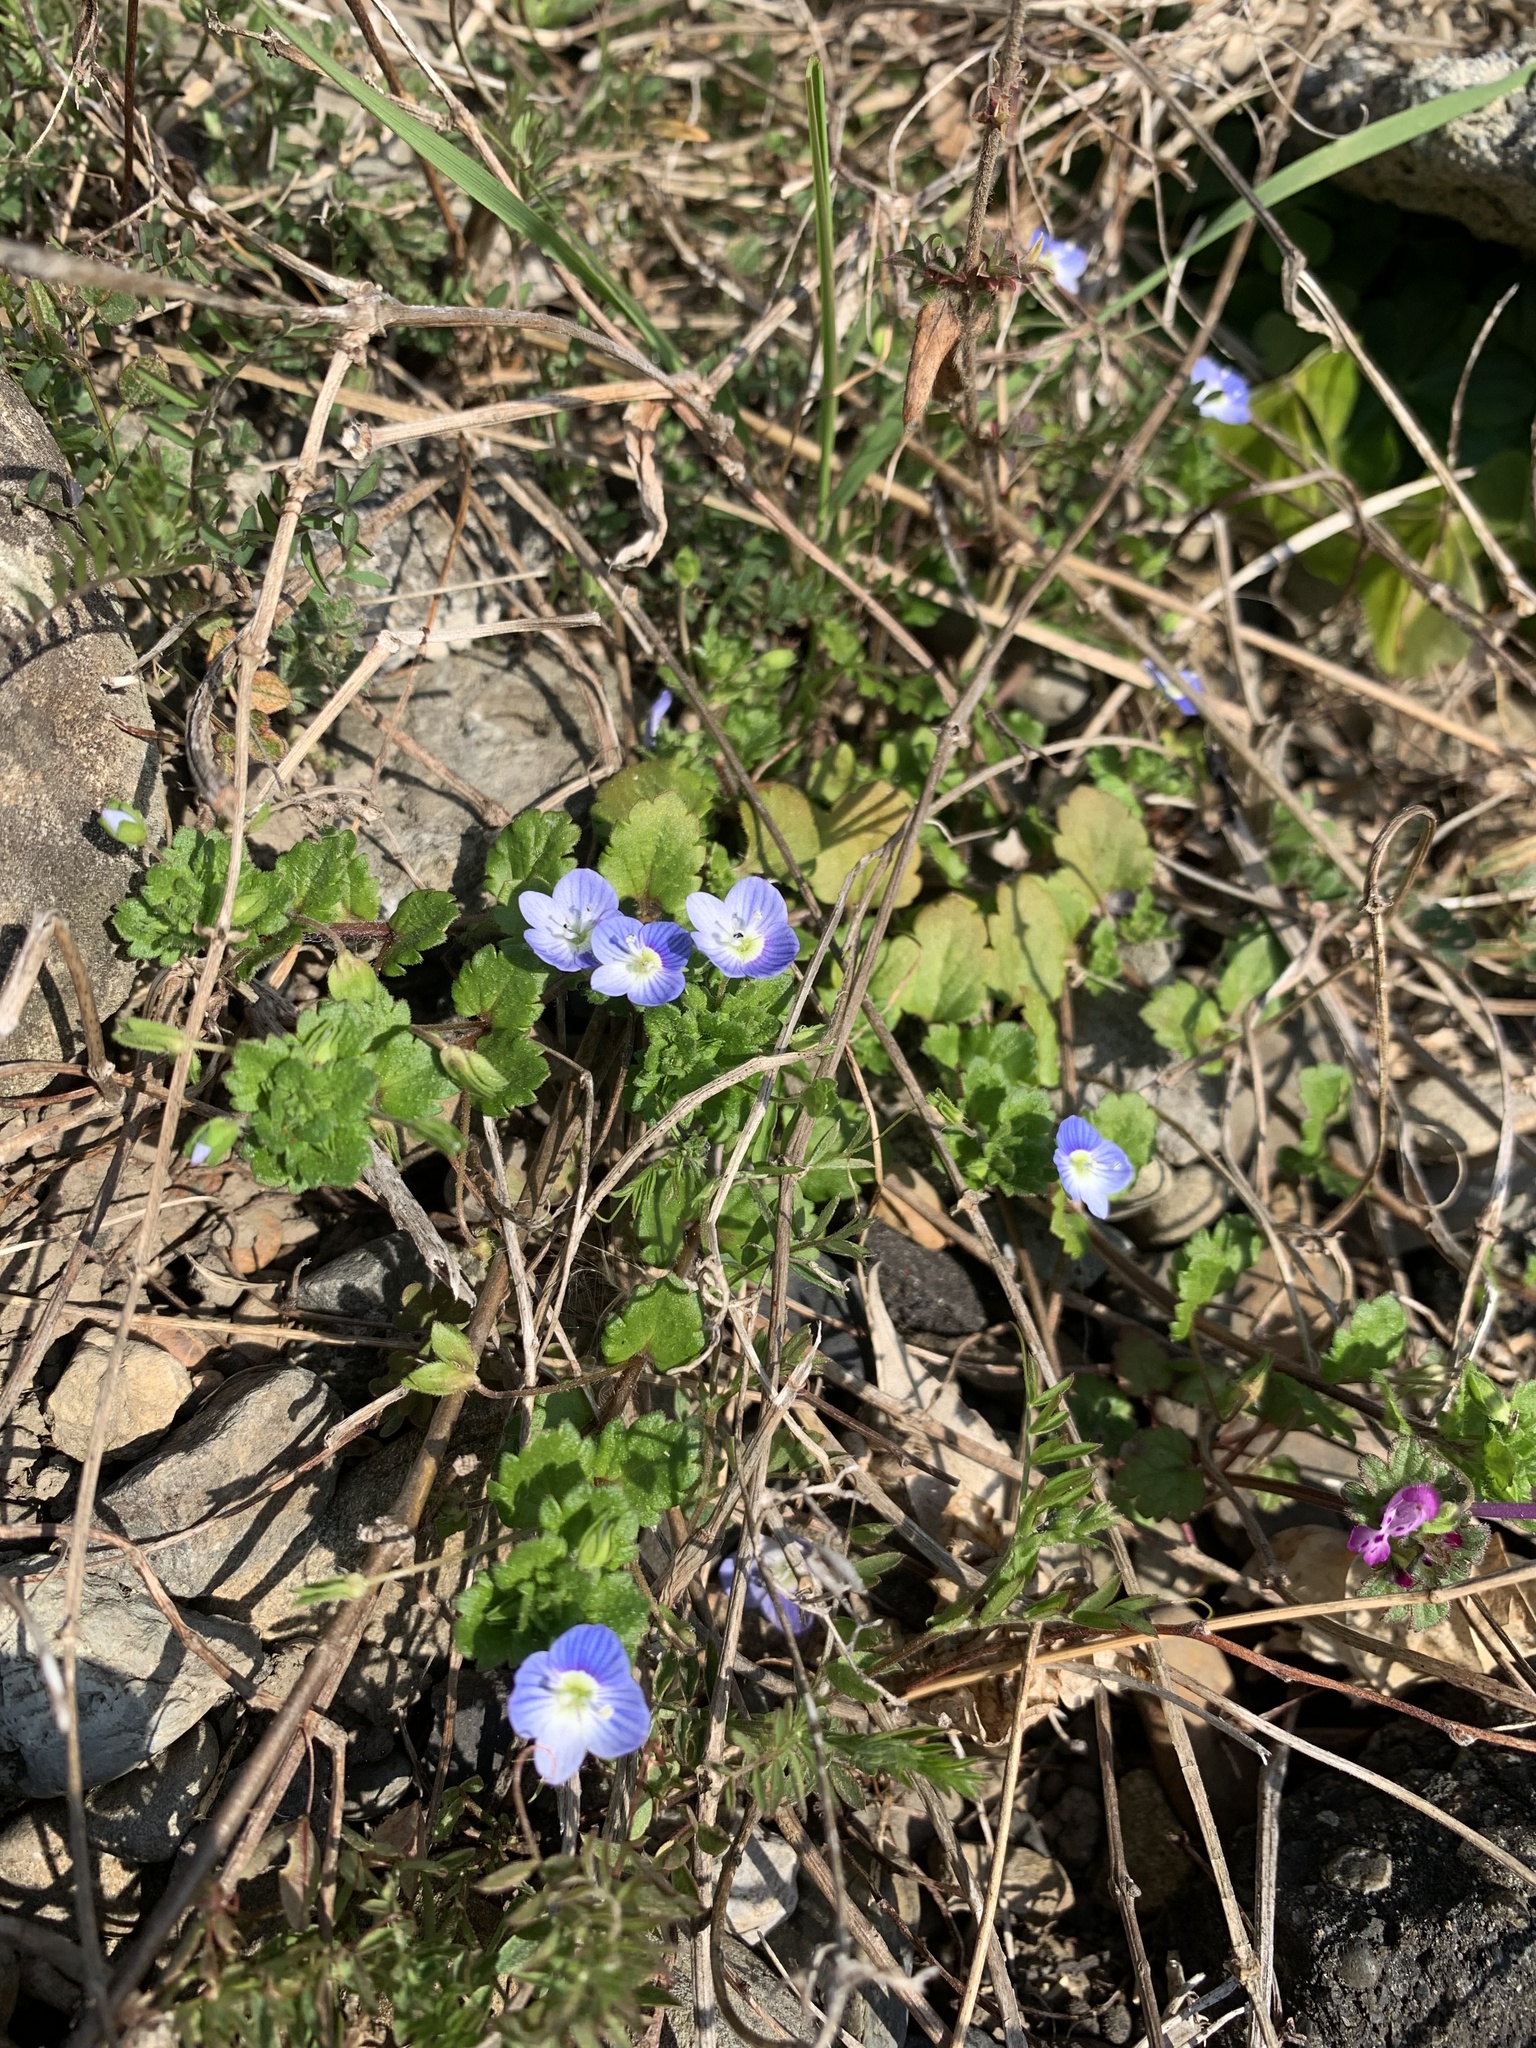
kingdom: Plantae
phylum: Tracheophyta
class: Magnoliopsida
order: Lamiales
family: Plantaginaceae
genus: Veronica
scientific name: Veronica persica
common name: Common field-speedwell
